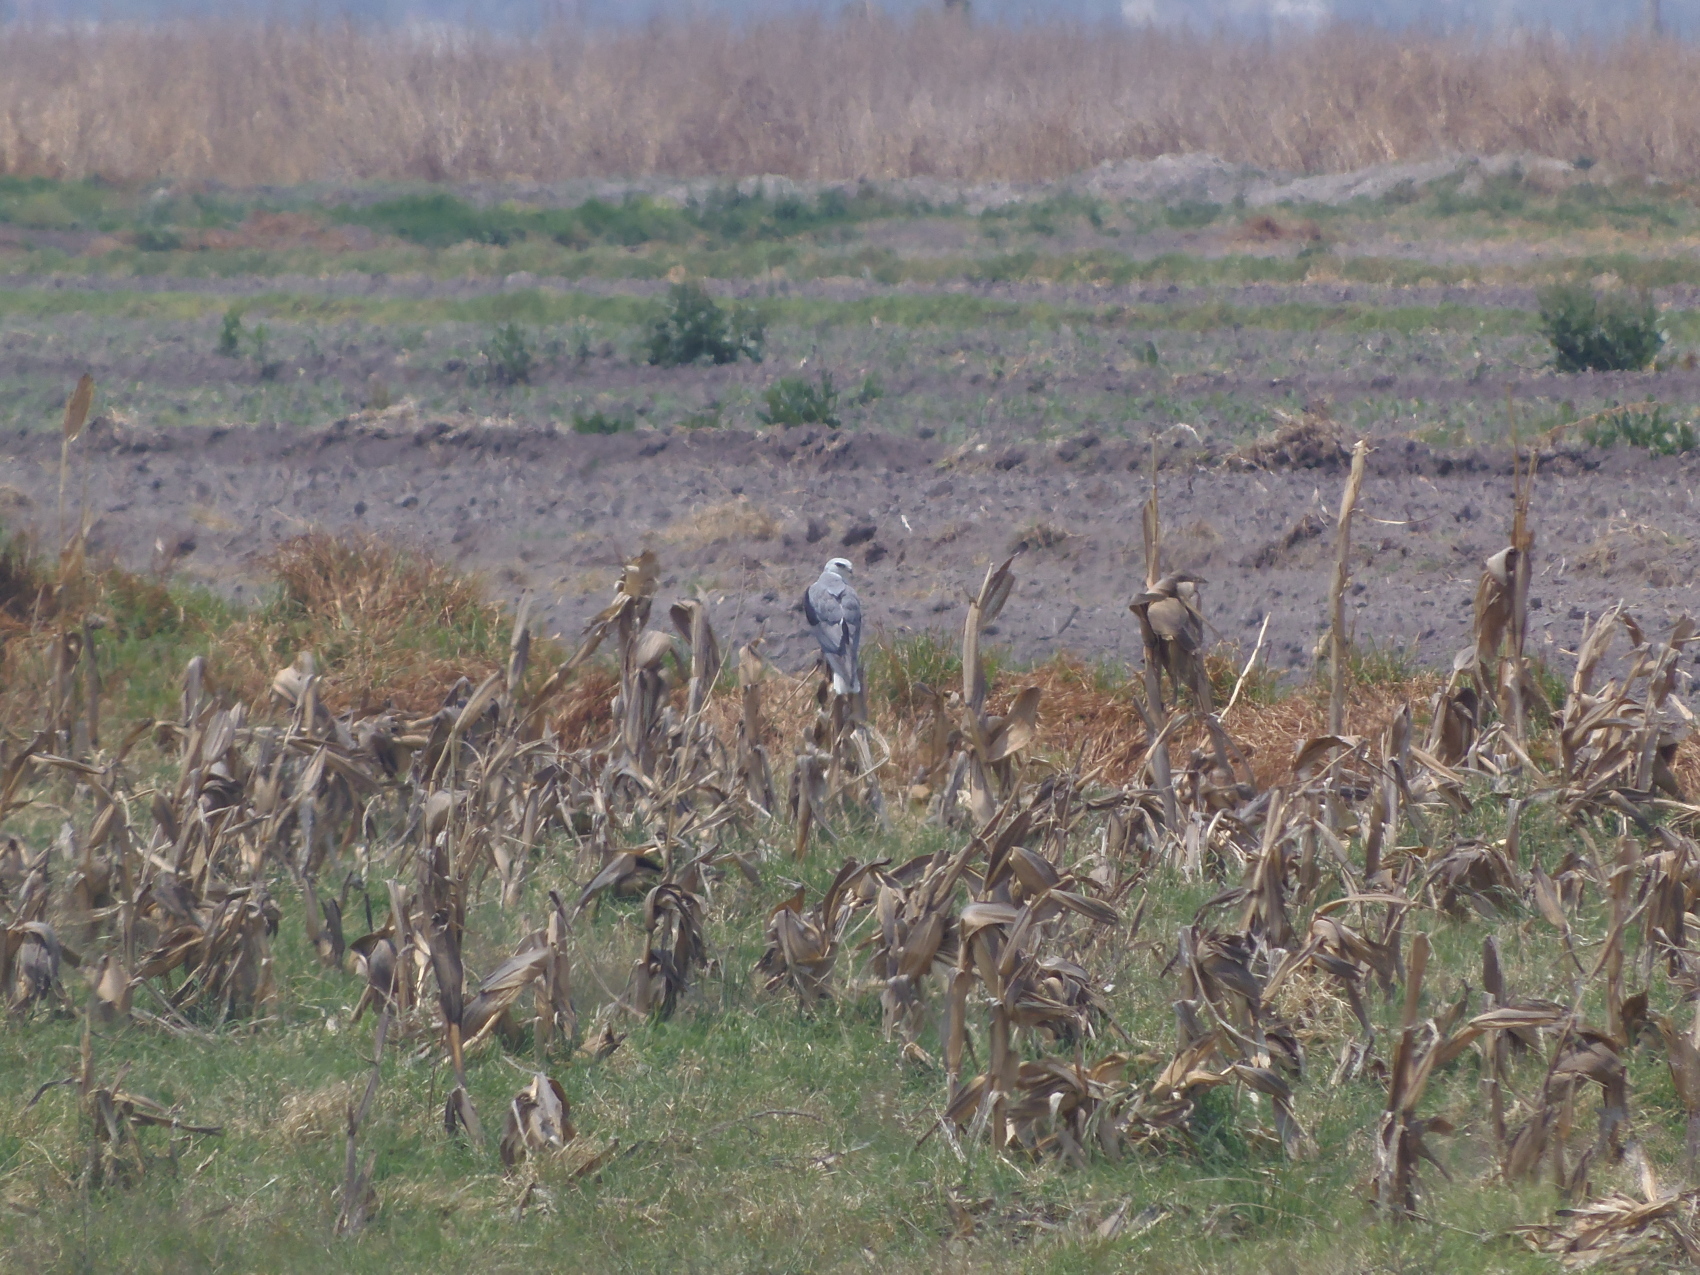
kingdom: Animalia
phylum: Chordata
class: Aves
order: Accipitriformes
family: Accipitridae
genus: Elanus
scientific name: Elanus leucurus
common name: White-tailed kite
